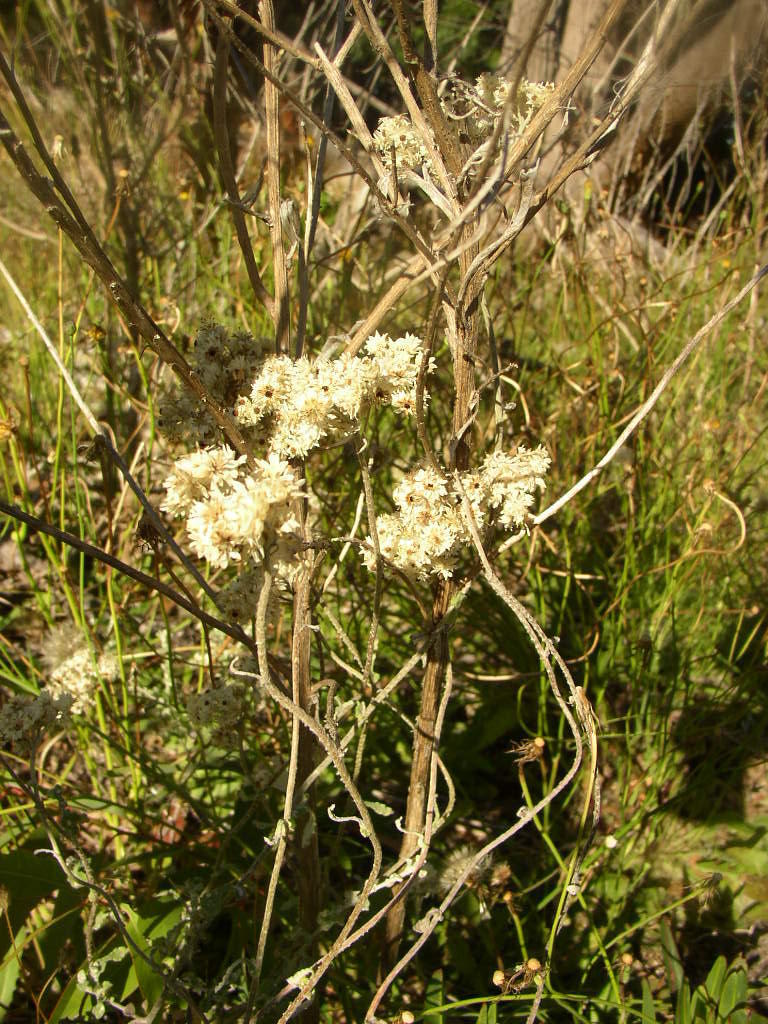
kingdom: Plantae
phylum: Tracheophyta
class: Magnoliopsida
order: Asterales
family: Asteraceae
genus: Helichrysum
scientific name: Helichrysum pandurifolium
